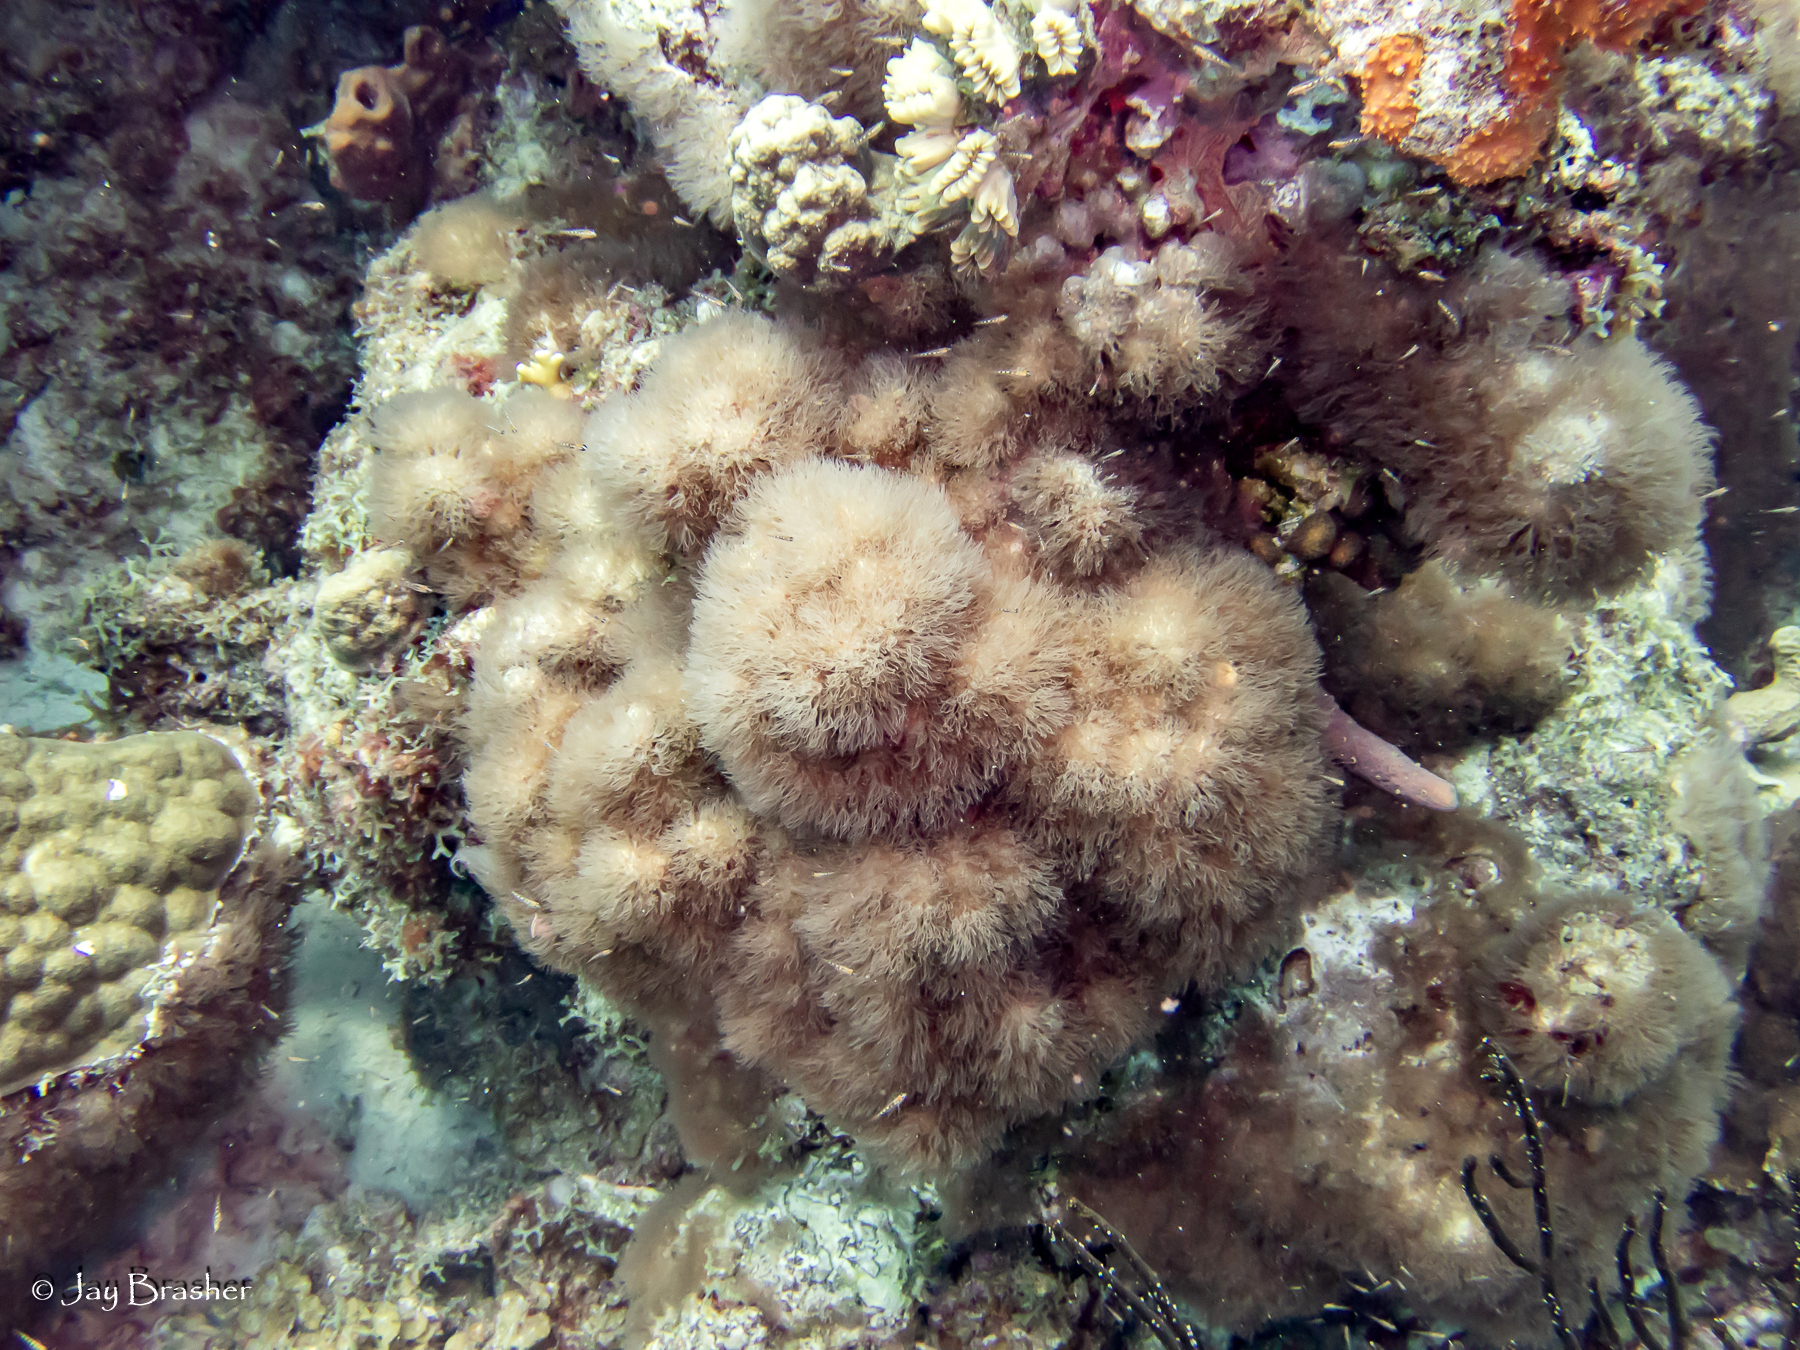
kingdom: Animalia
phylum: Cnidaria
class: Anthozoa
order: Scleralcyonacea
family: Erythropodiidae
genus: Erythropodium
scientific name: Erythropodium caribaeorum
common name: Encrusting gorgonian
